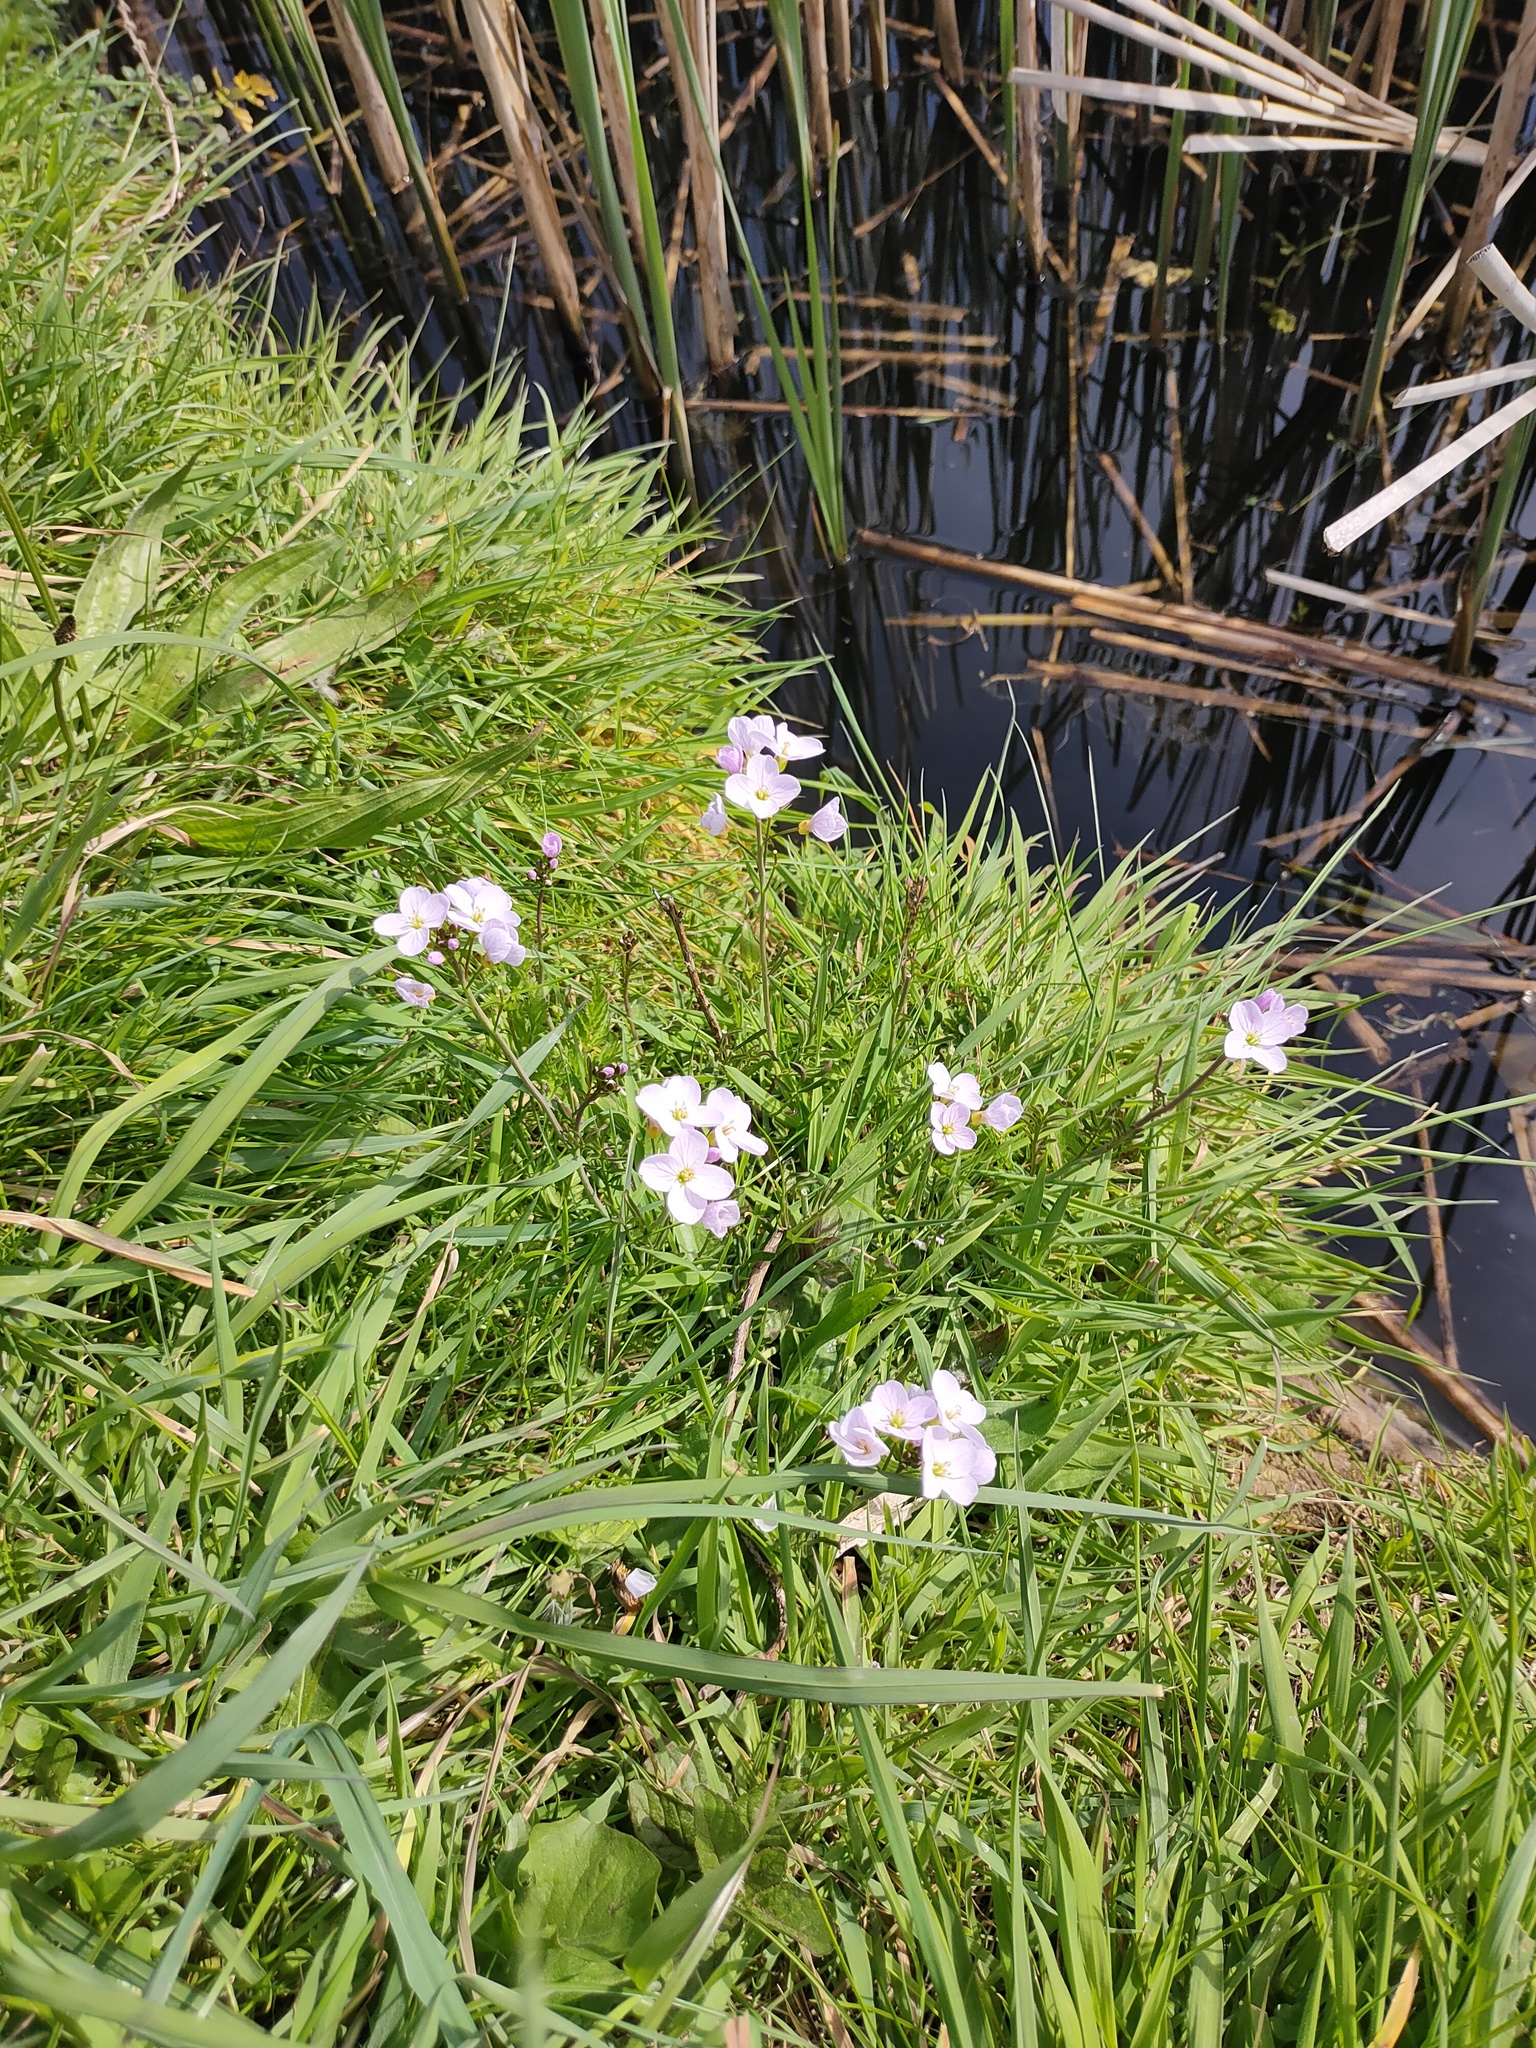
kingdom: Plantae
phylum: Tracheophyta
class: Magnoliopsida
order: Brassicales
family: Brassicaceae
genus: Cardamine
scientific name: Cardamine pratensis
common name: Cuckoo flower
